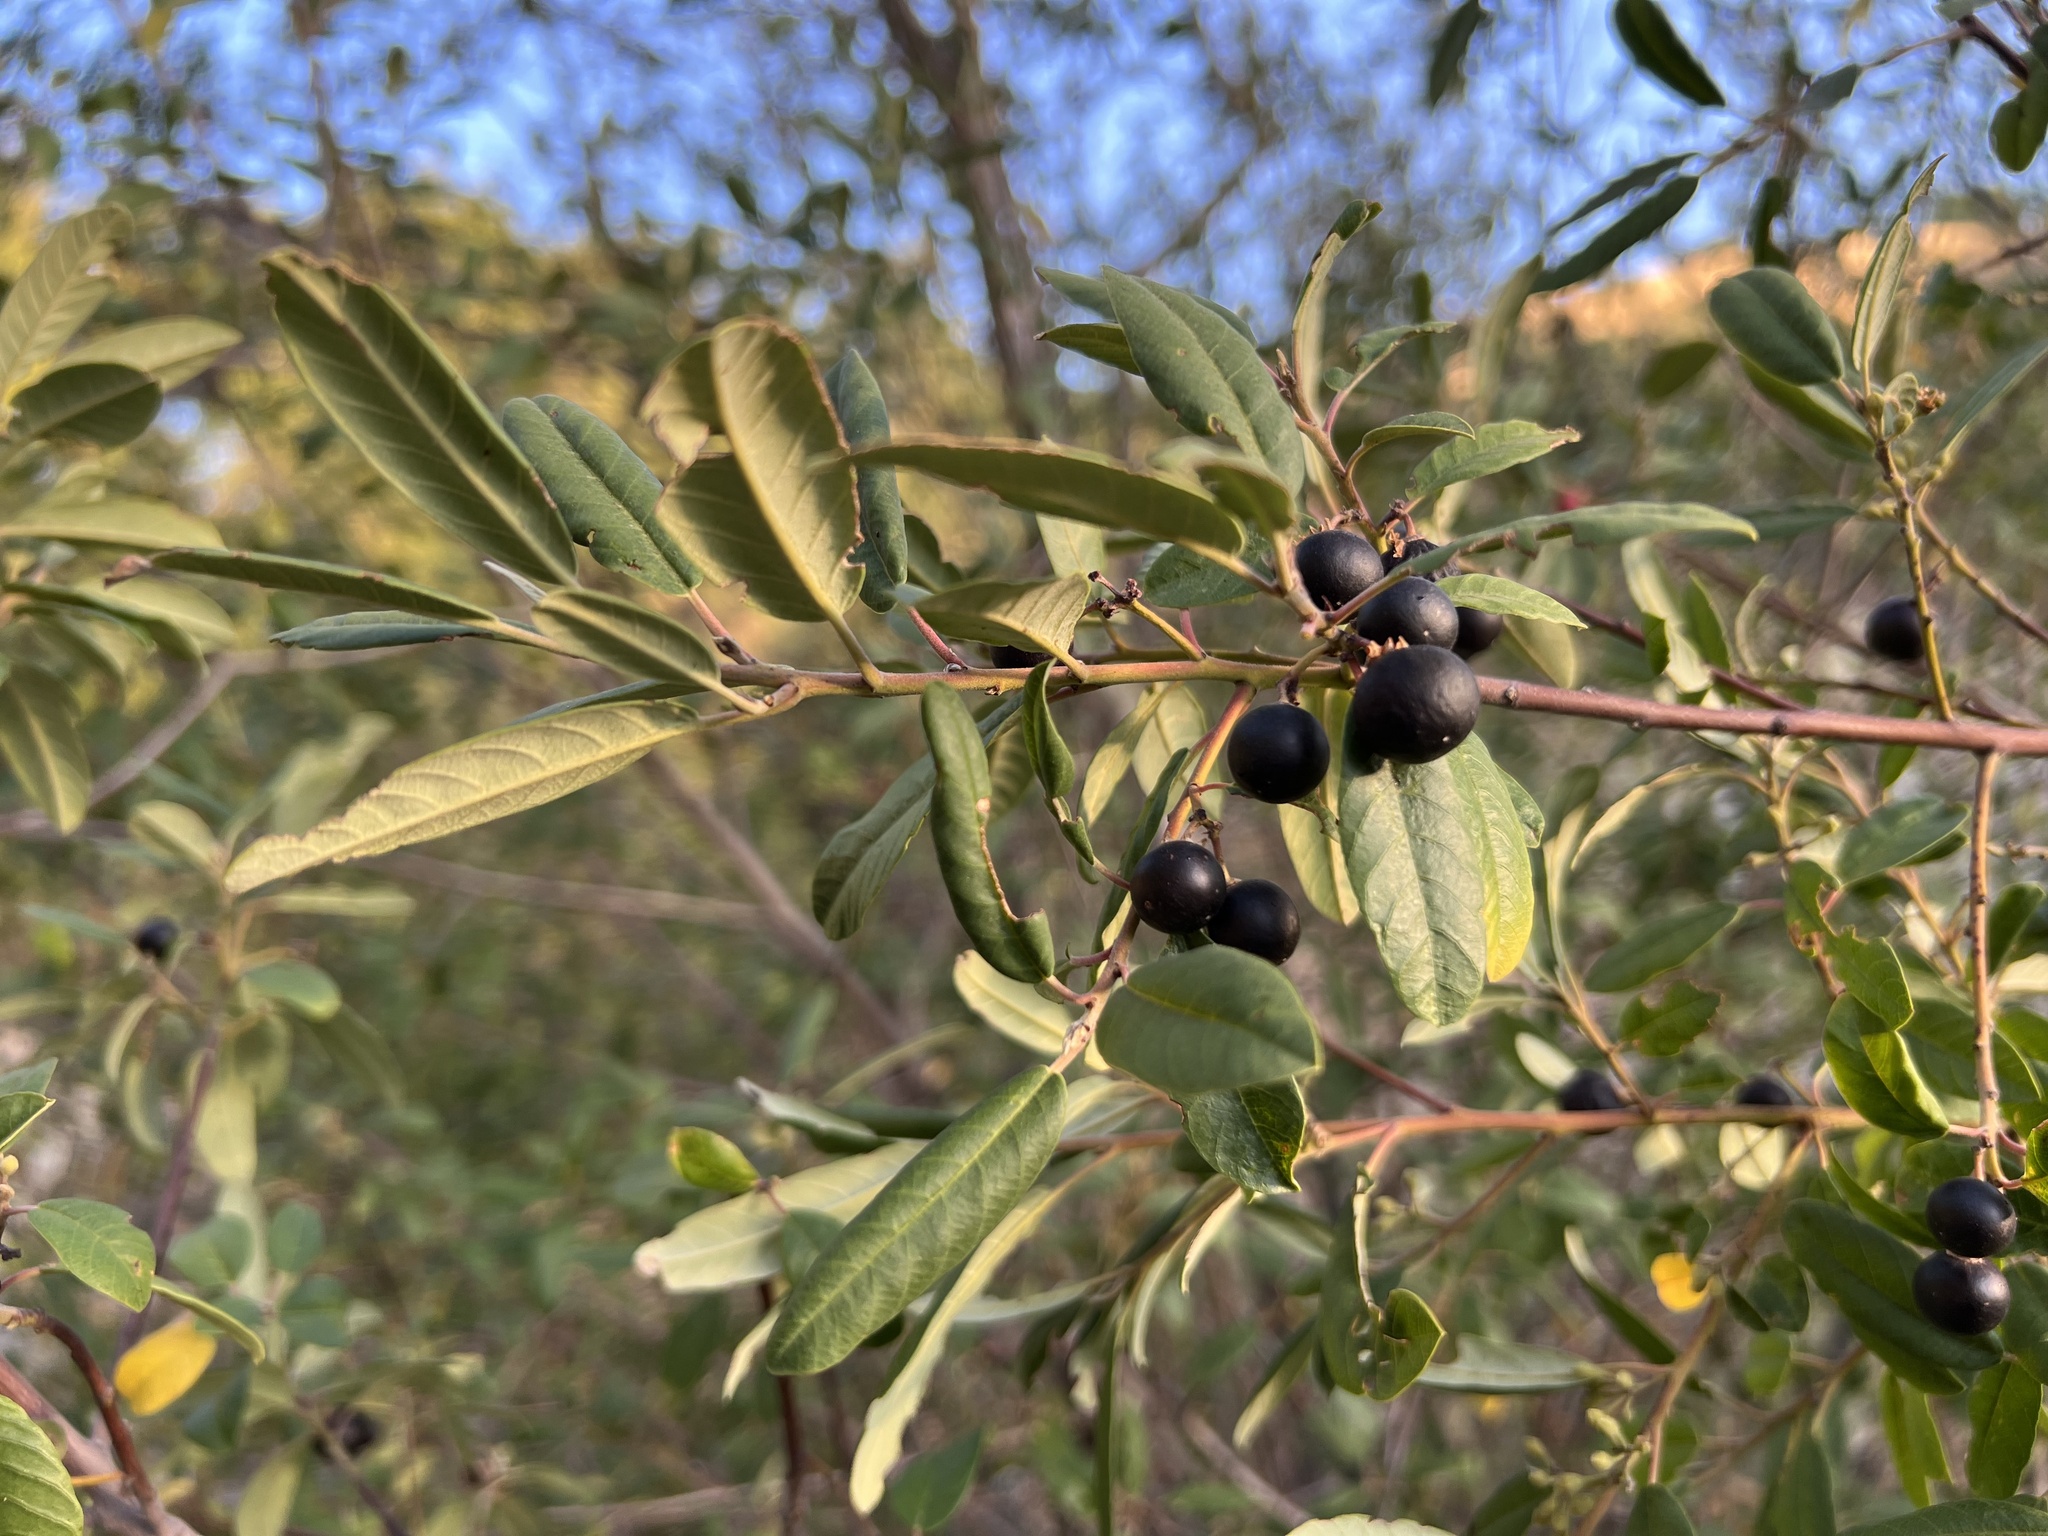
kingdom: Plantae
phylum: Tracheophyta
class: Magnoliopsida
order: Rosales
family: Rhamnaceae
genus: Frangula
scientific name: Frangula californica
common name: California buckthorn
